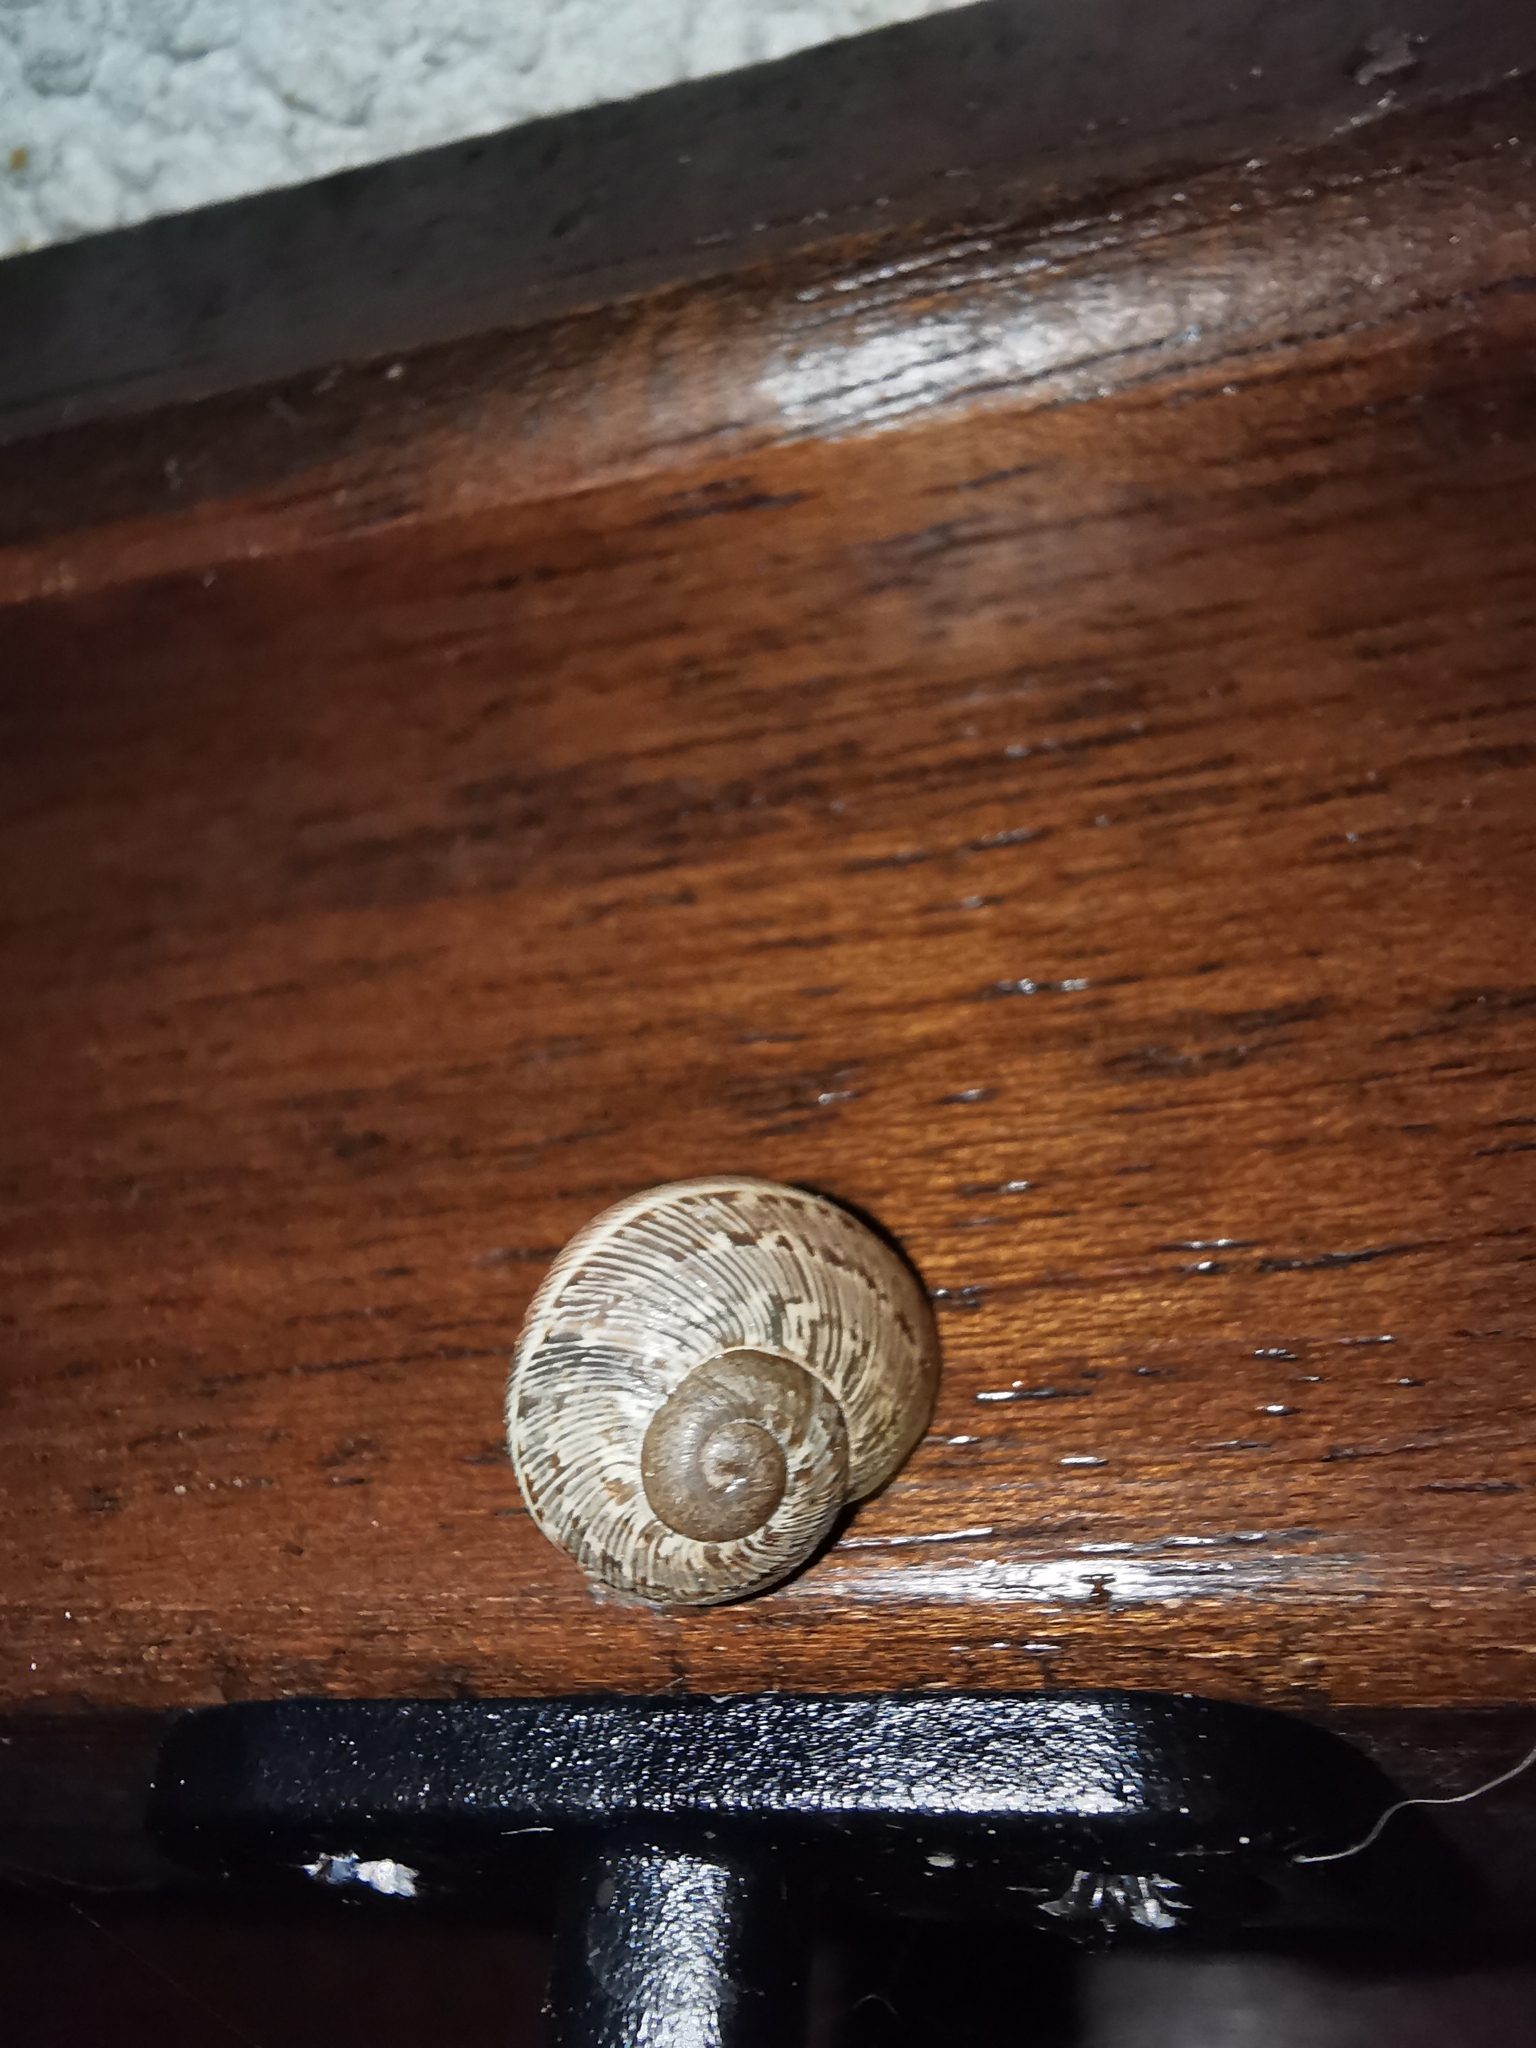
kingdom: Animalia
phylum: Mollusca
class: Gastropoda
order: Stylommatophora
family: Helicidae
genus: Cornu
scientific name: Cornu aspersum
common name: Brown garden snail
